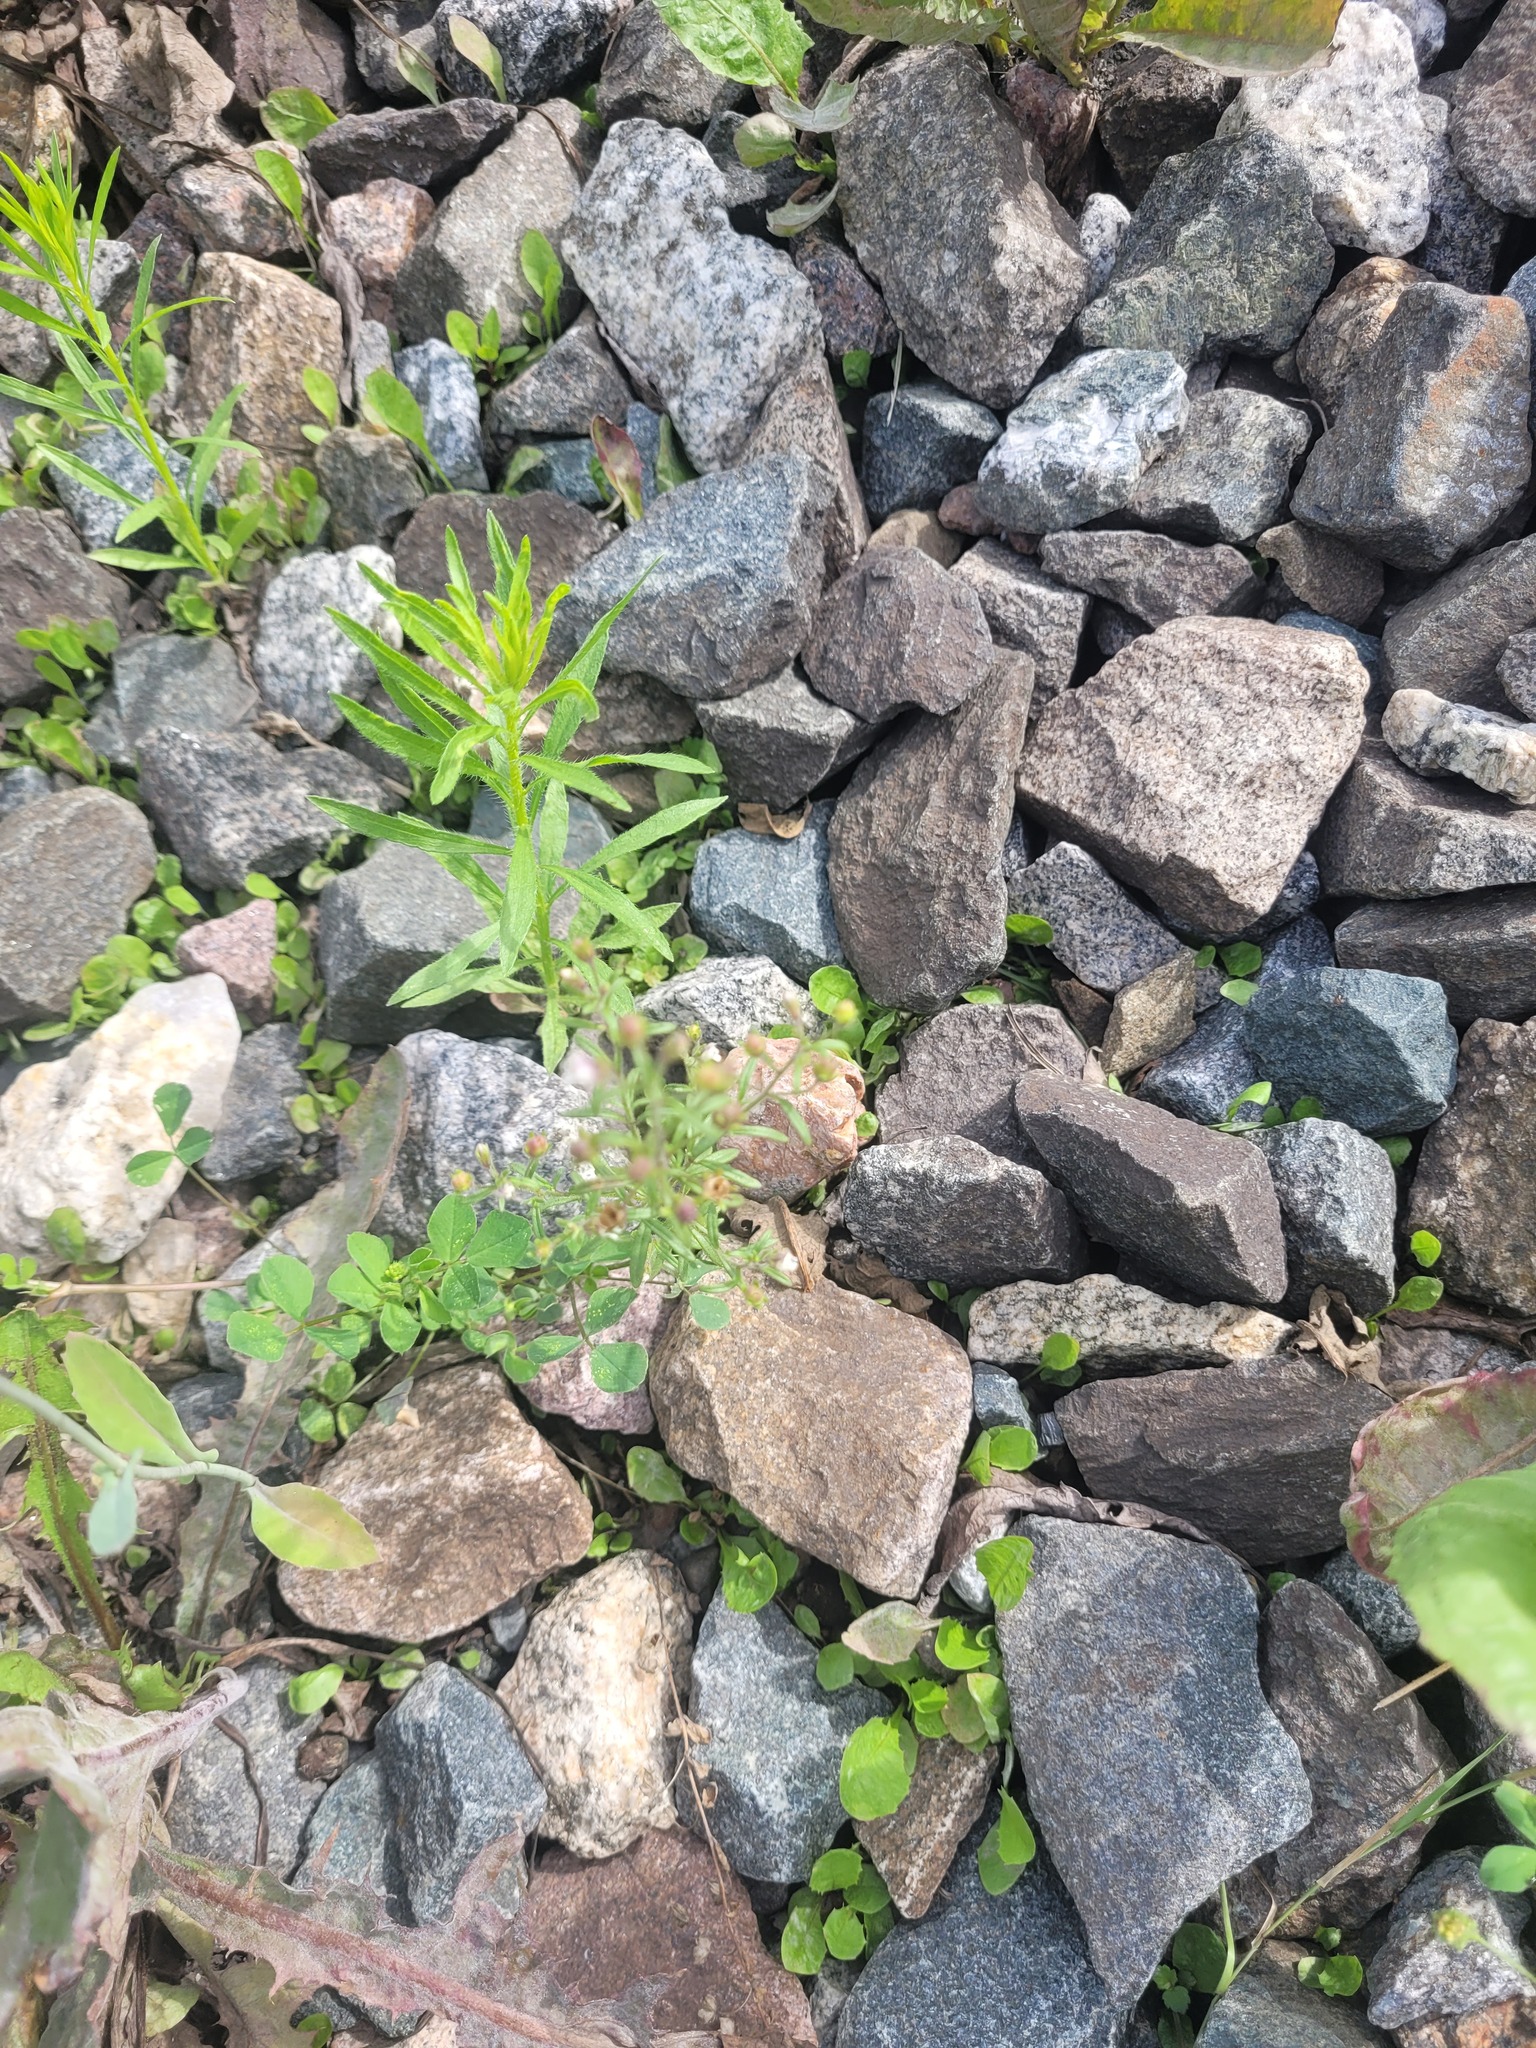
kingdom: Plantae
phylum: Tracheophyta
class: Magnoliopsida
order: Lamiales
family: Plantaginaceae
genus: Chaenorhinum
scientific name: Chaenorhinum minus
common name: Dwarf snapdragon
